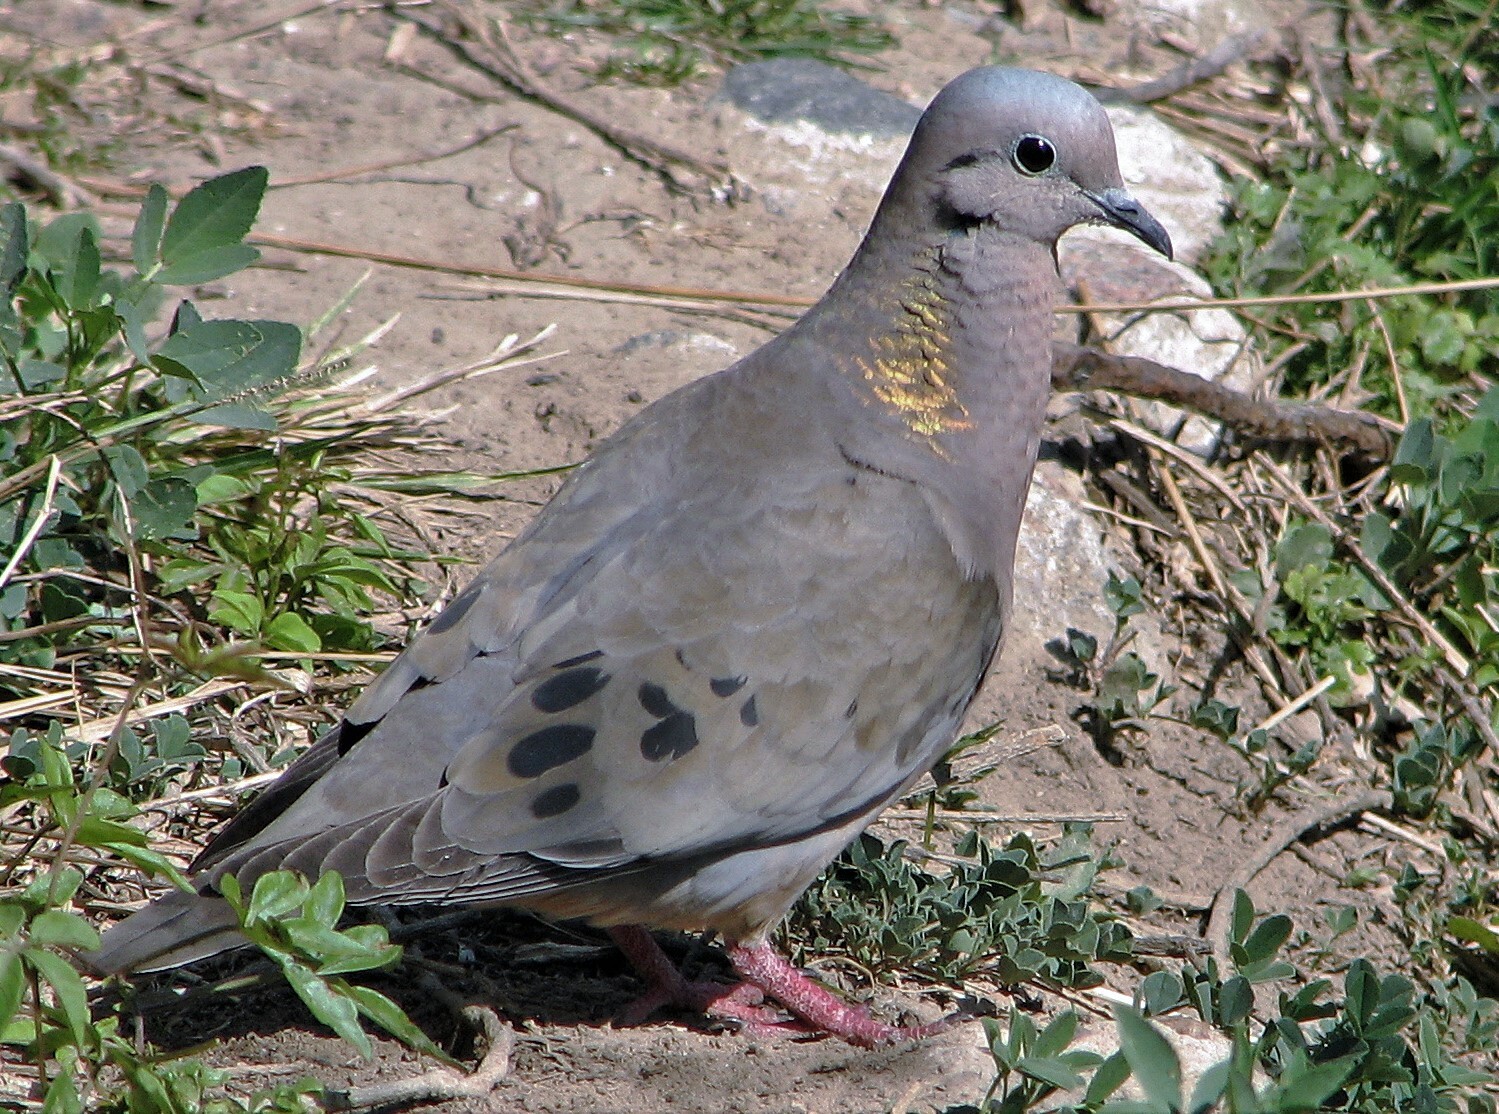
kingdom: Animalia
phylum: Chordata
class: Aves
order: Columbiformes
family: Columbidae
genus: Zenaida
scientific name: Zenaida auriculata
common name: Eared dove
